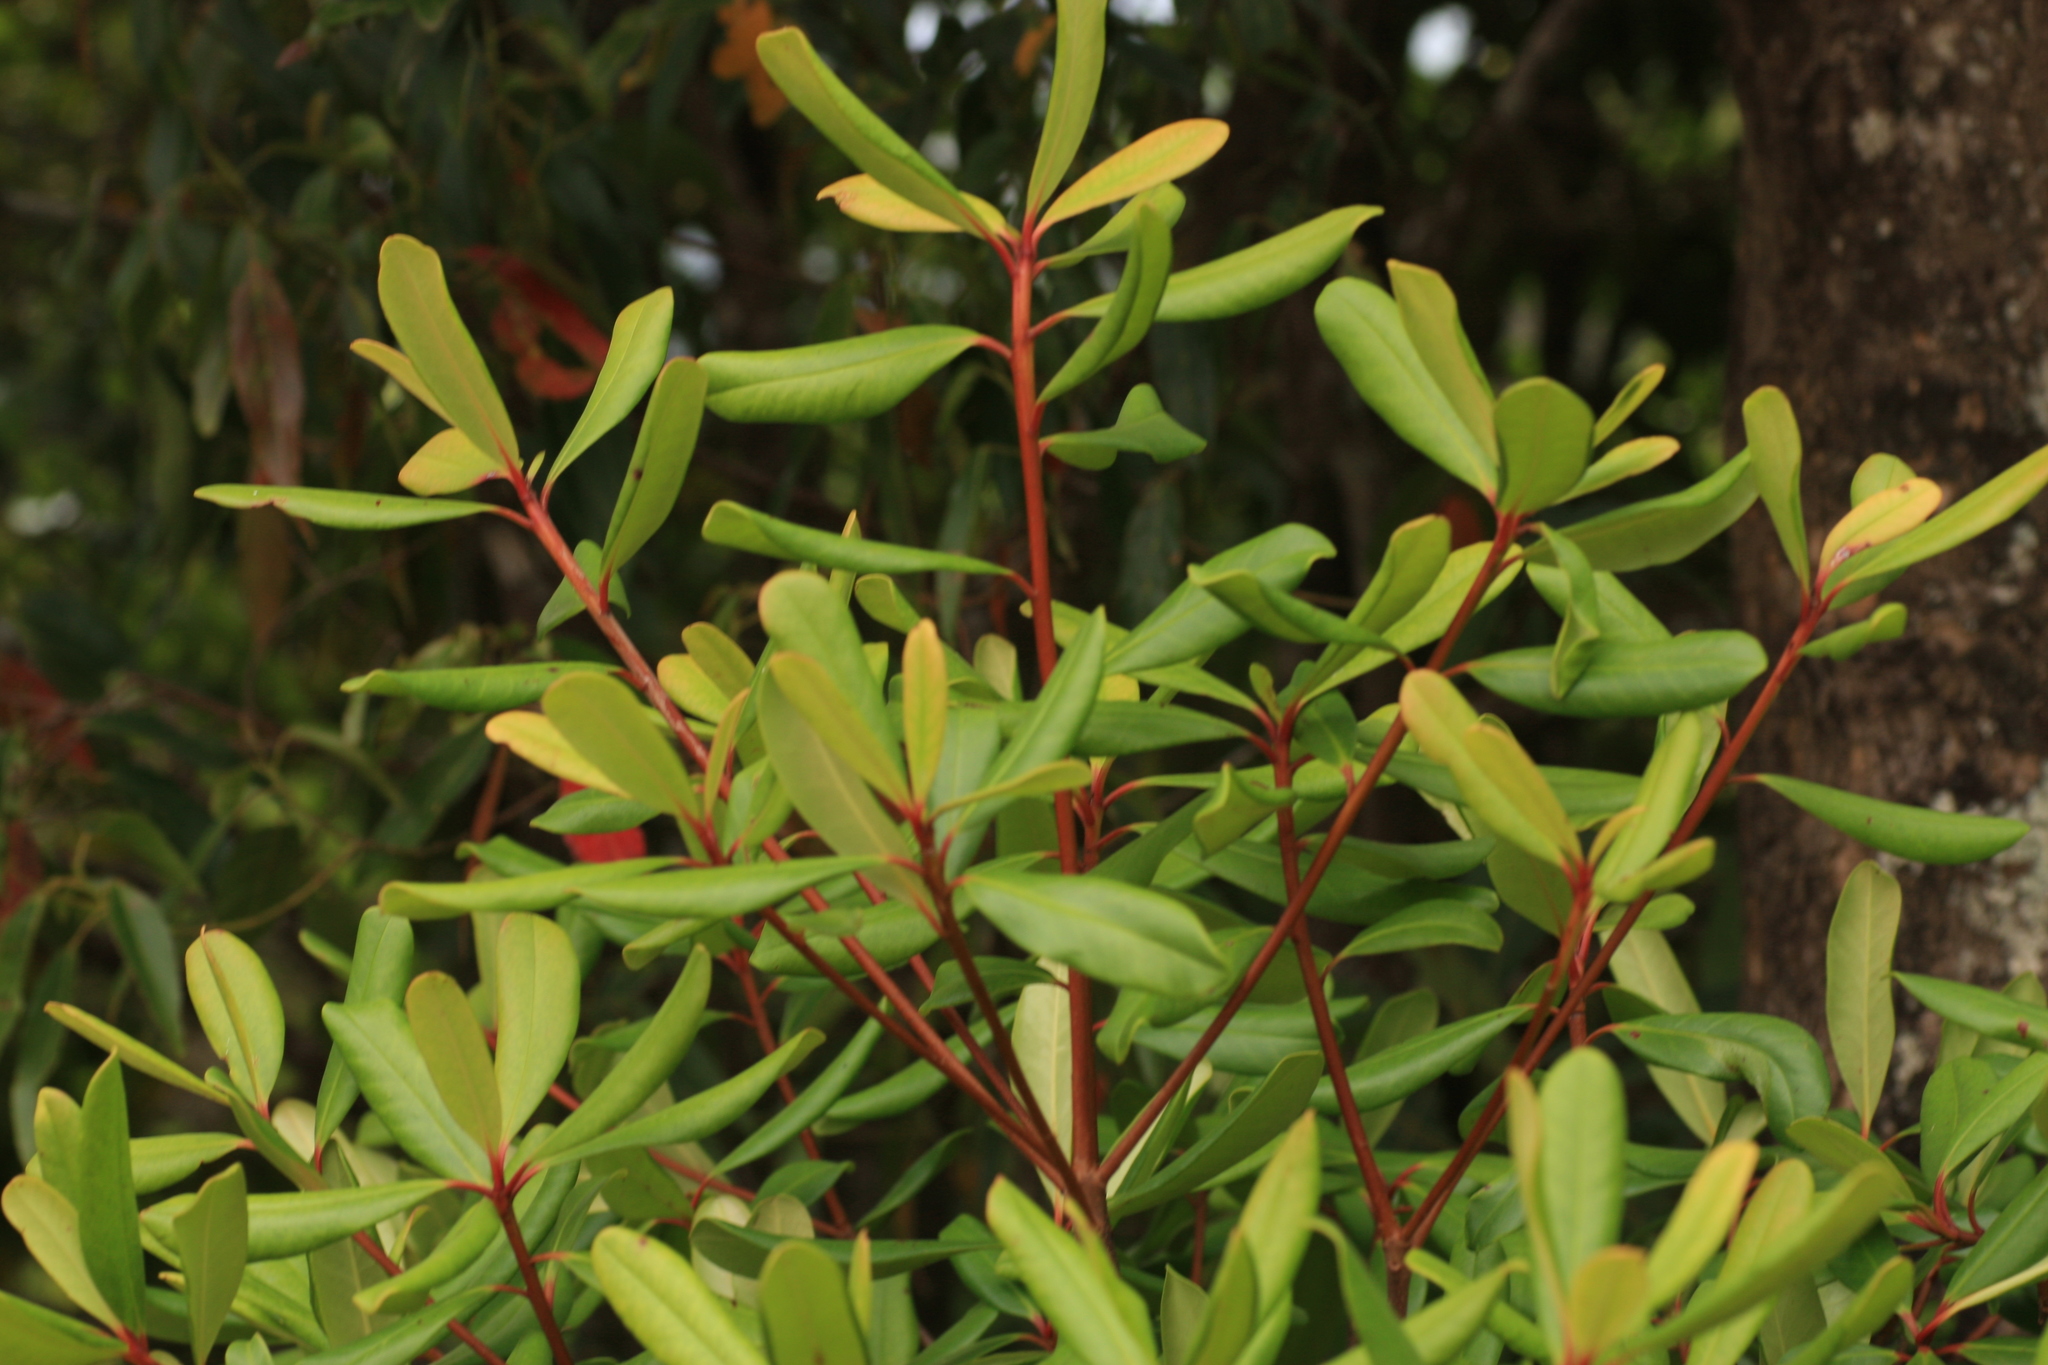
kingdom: Plantae
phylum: Tracheophyta
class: Magnoliopsida
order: Ericales
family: Pentaphylacaceae
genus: Ternstroemia
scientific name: Ternstroemia gymnanthera
